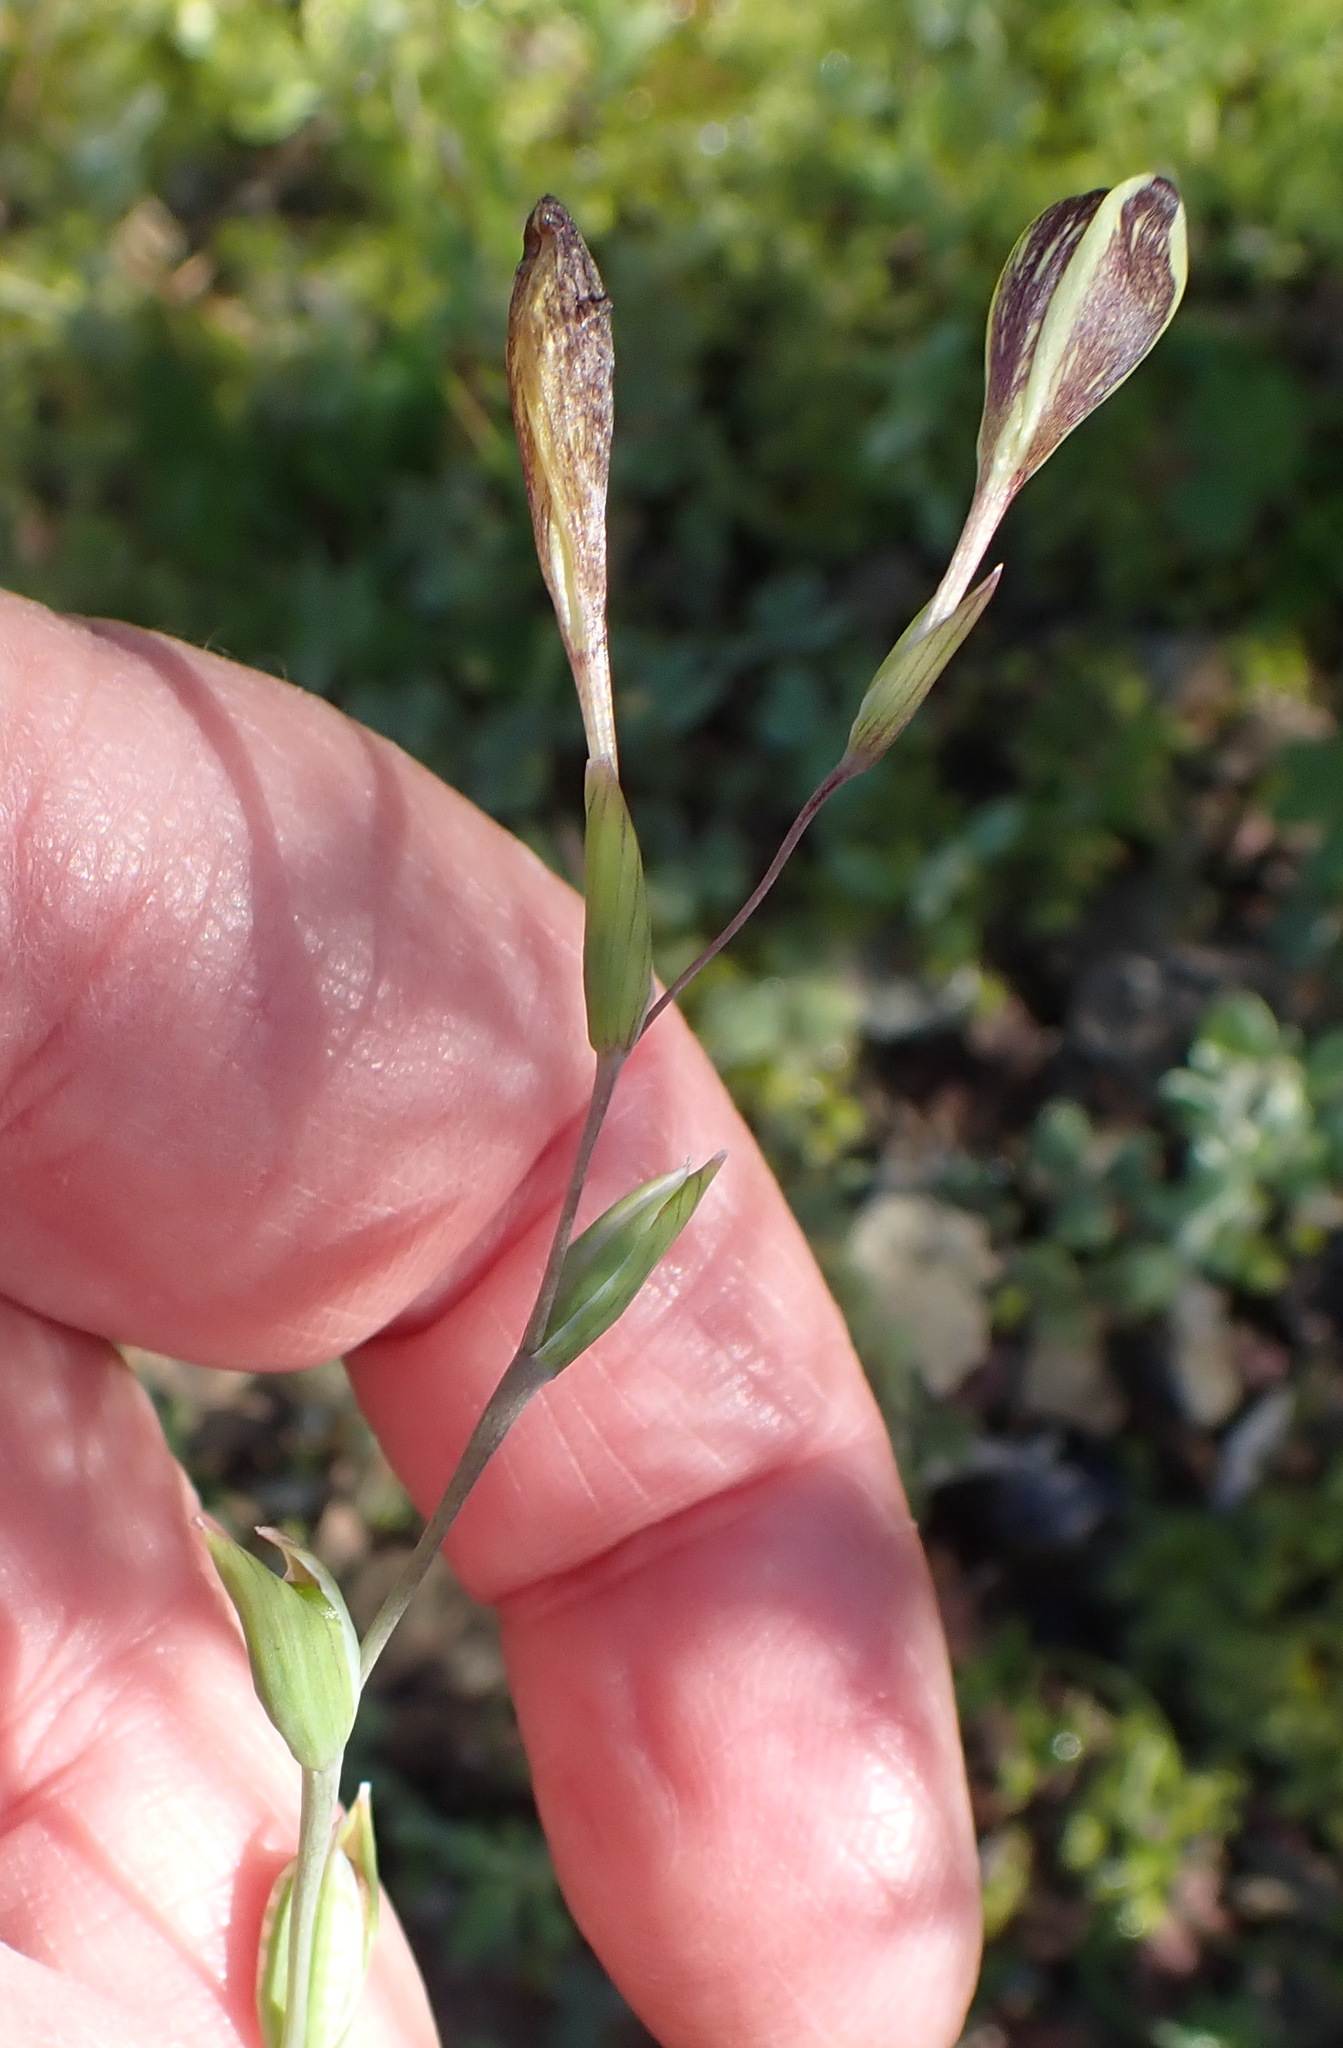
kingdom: Plantae
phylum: Tracheophyta
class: Liliopsida
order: Asparagales
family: Iridaceae
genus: Hesperantha
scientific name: Hesperantha acuta
